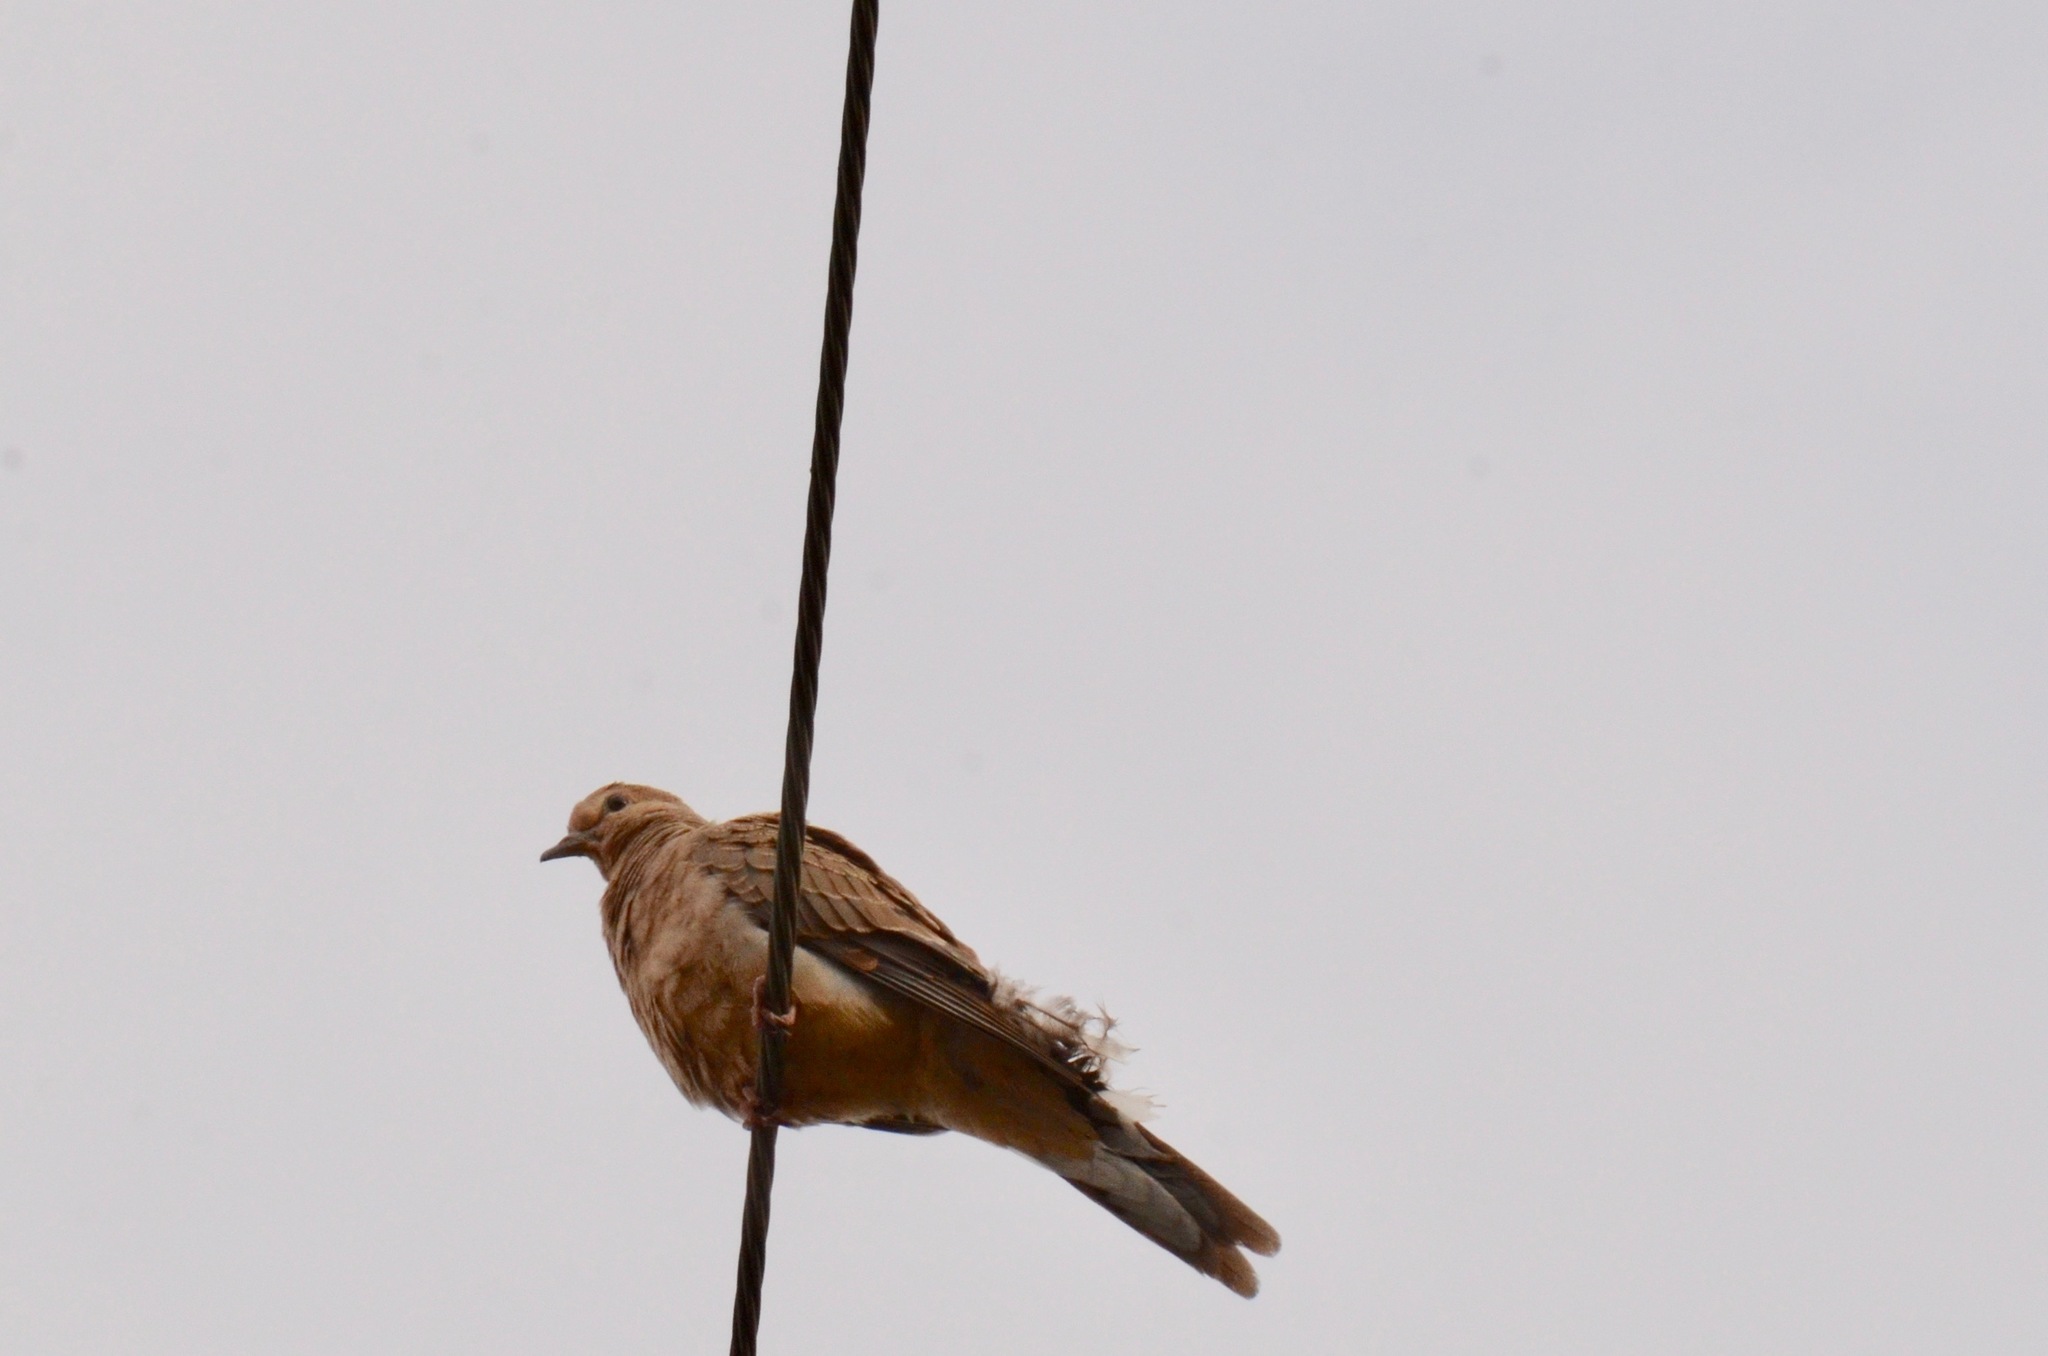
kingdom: Animalia
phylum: Chordata
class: Aves
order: Columbiformes
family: Columbidae
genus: Zenaida
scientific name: Zenaida macroura
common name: Mourning dove
